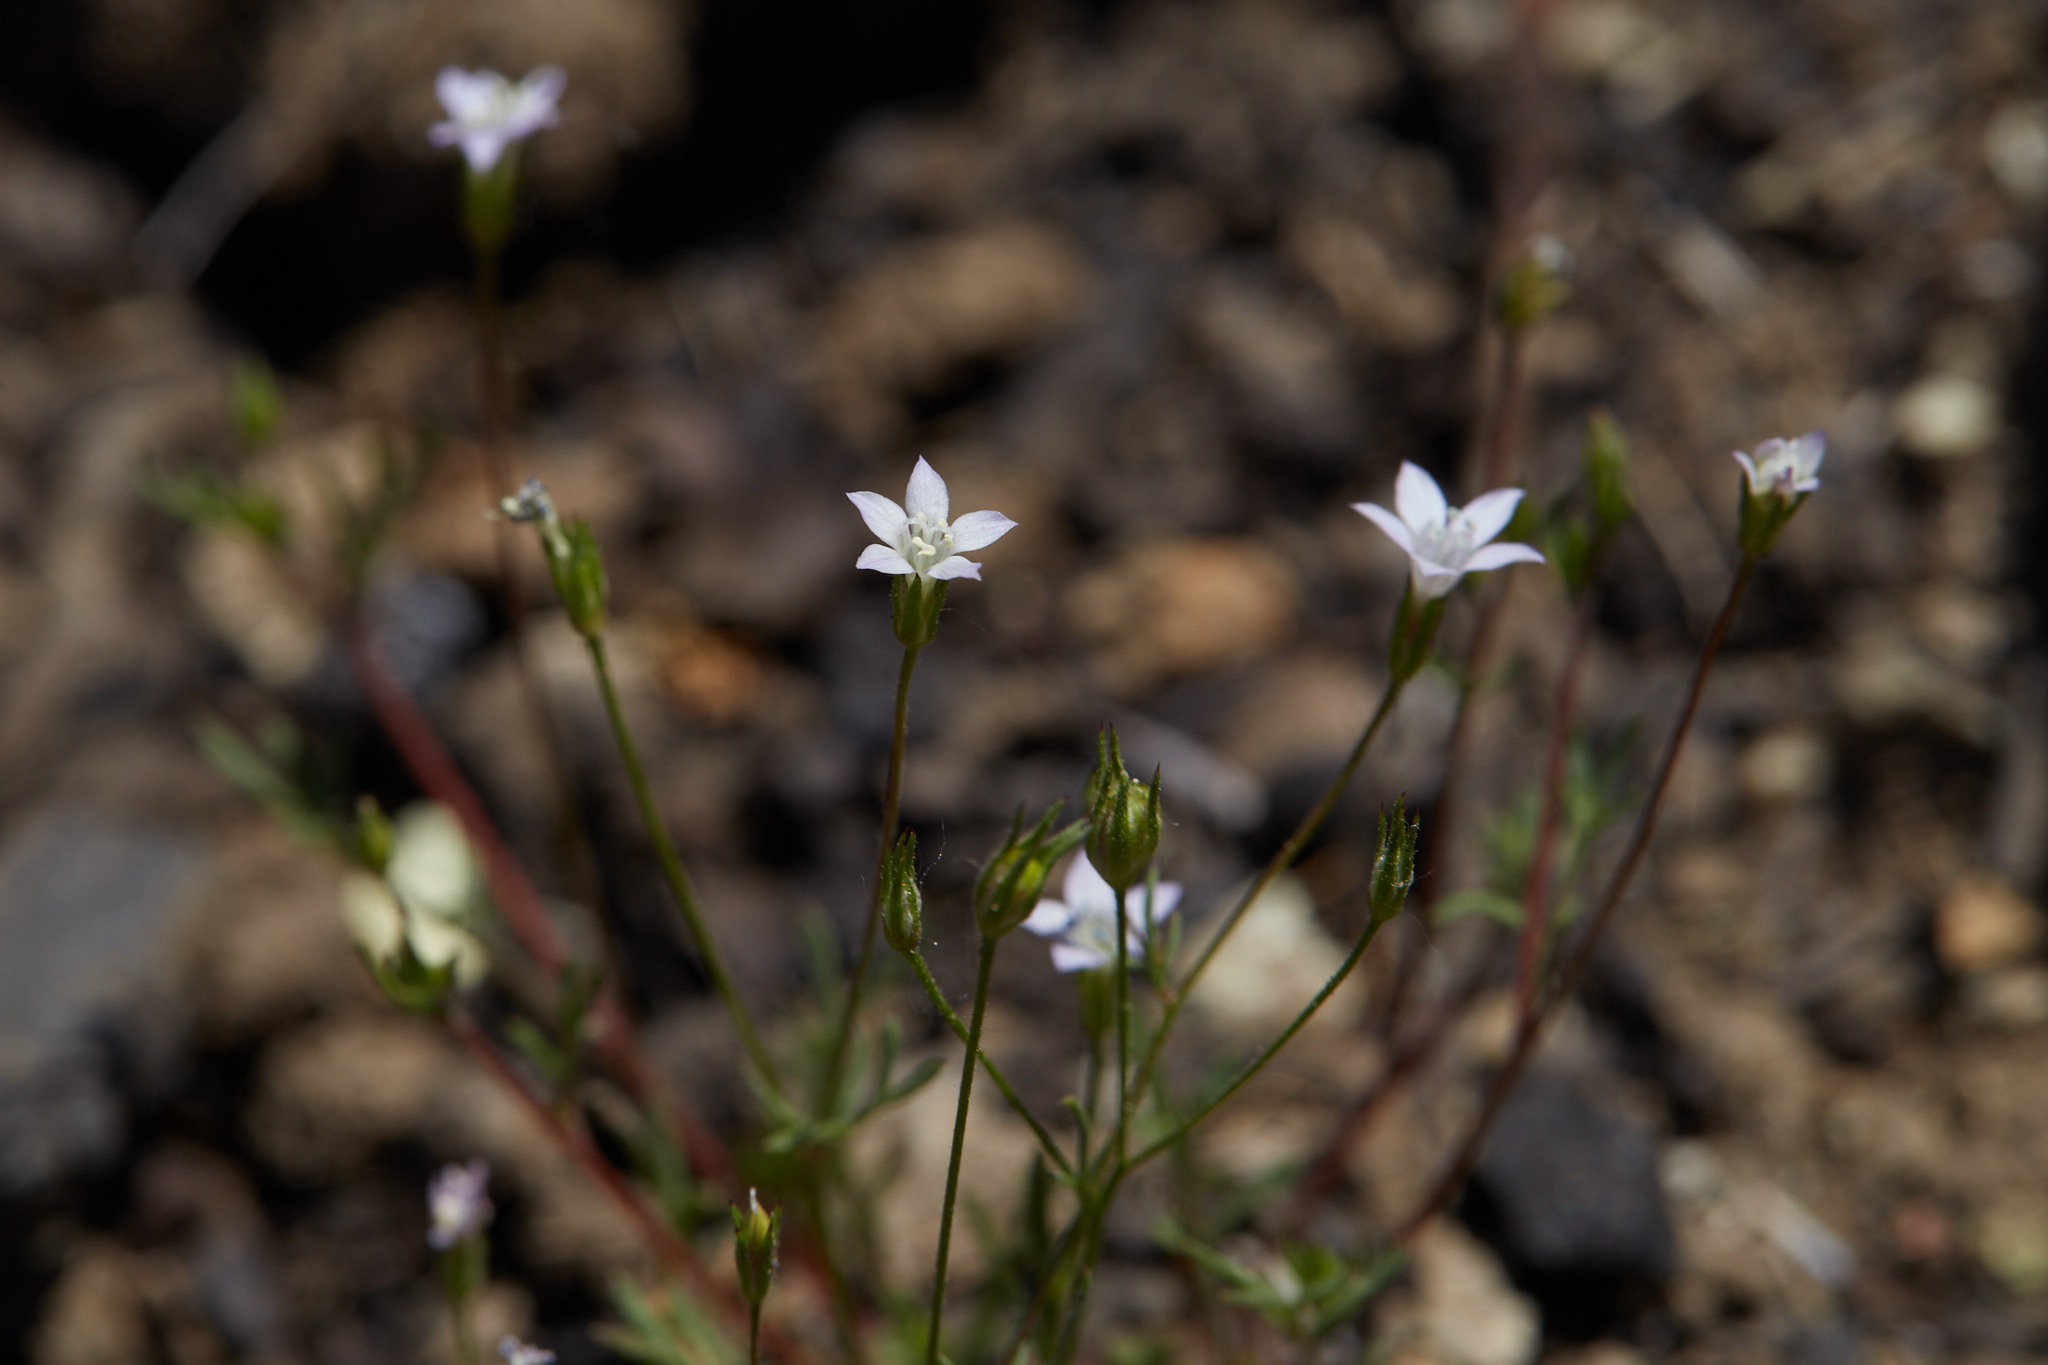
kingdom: Plantae
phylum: Tracheophyta
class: Magnoliopsida
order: Ericales
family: Polemoniaceae
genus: Gilia
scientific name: Gilia achilleifolia
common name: California gily-flower
